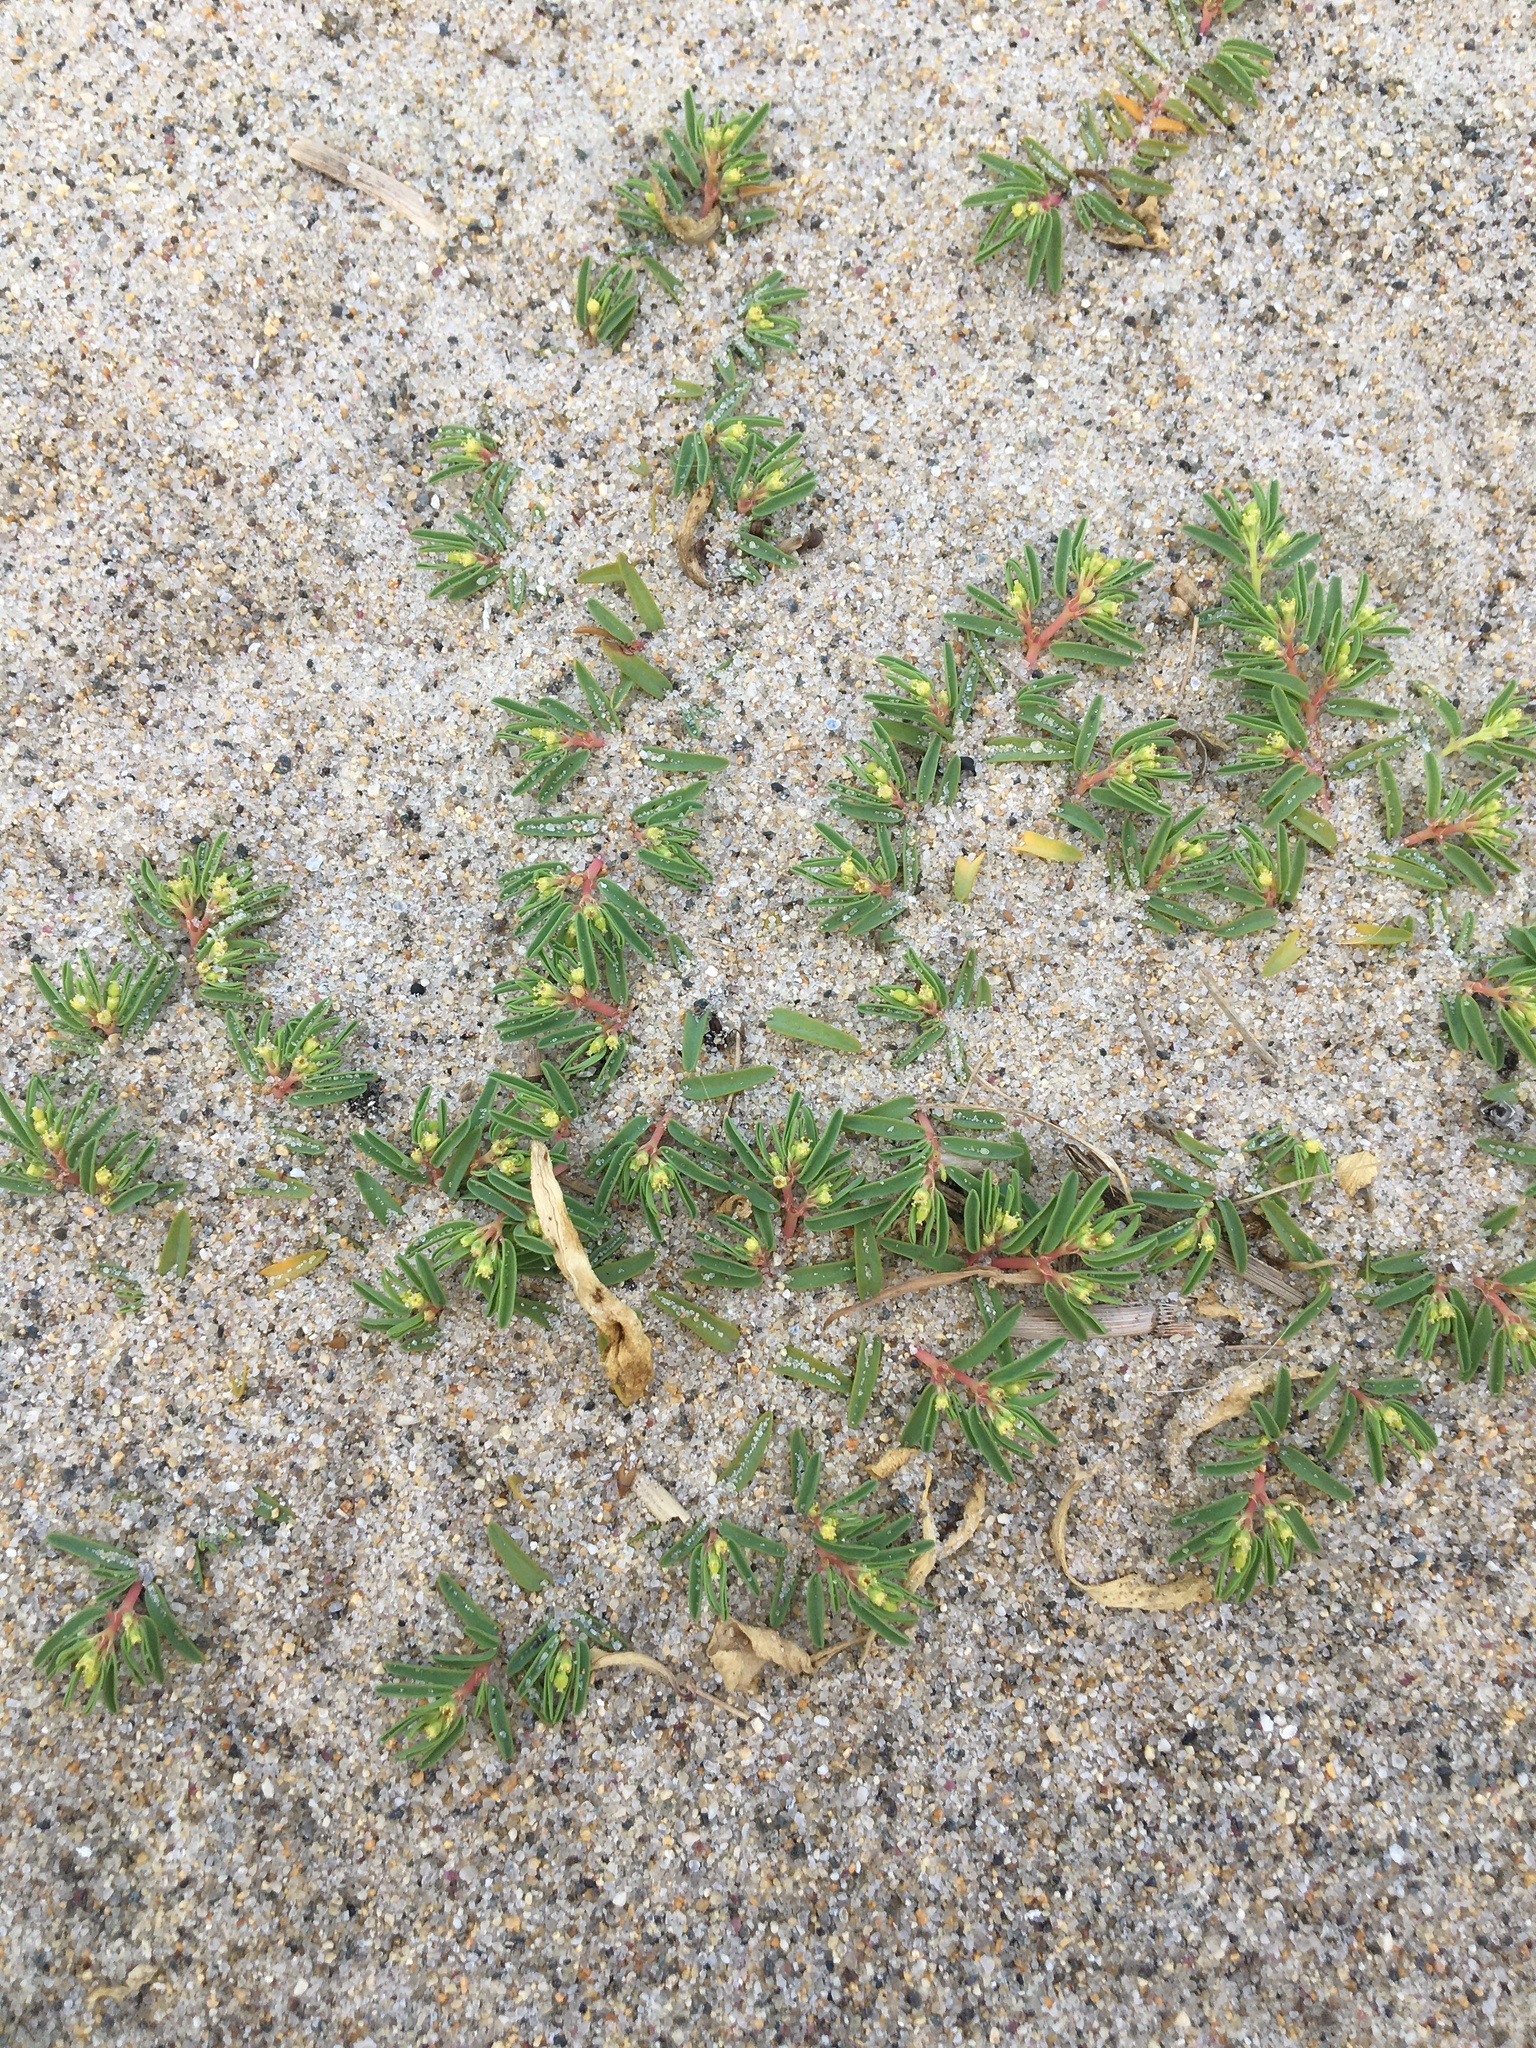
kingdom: Plantae
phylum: Tracheophyta
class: Magnoliopsida
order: Malpighiales
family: Euphorbiaceae
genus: Euphorbia
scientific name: Euphorbia polygonifolia
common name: Knotweed spurge
